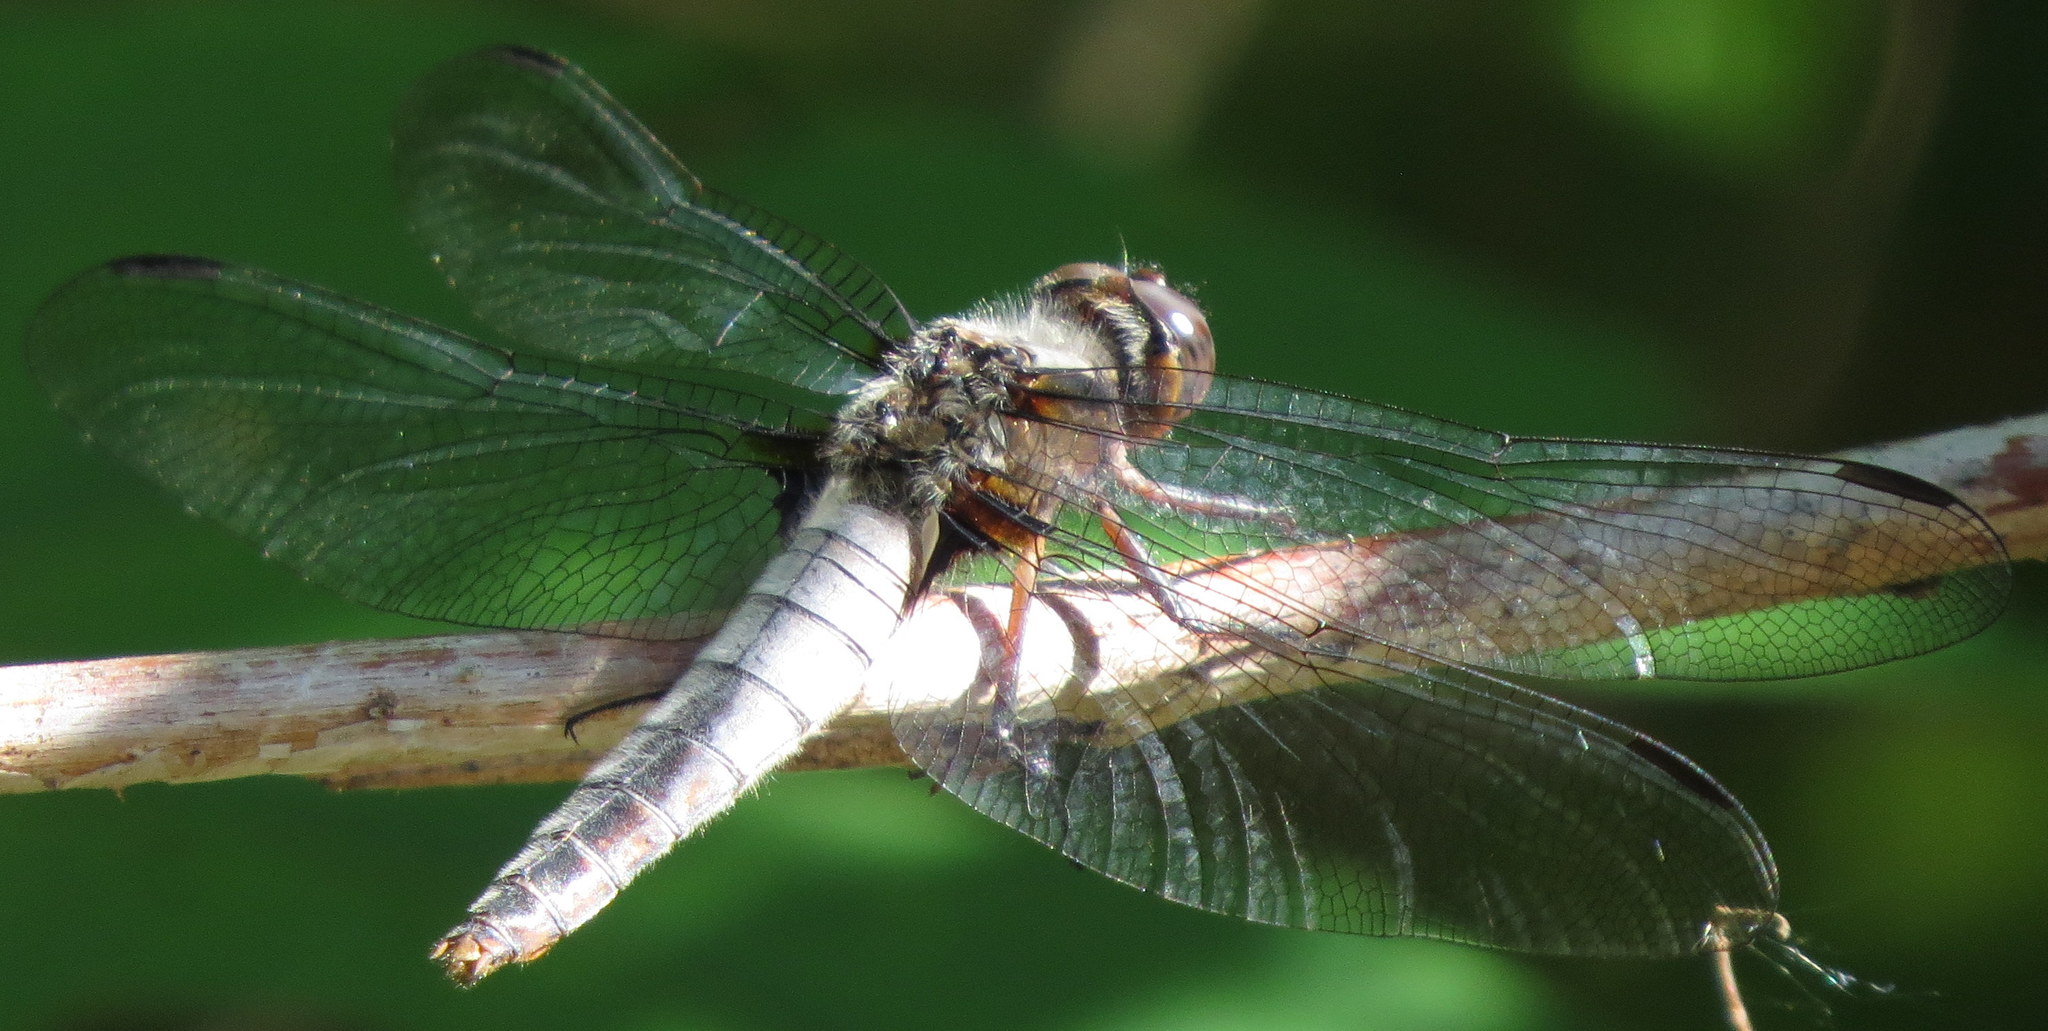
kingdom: Animalia
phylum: Arthropoda
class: Insecta
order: Odonata
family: Libellulidae
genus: Ladona
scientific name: Ladona julia
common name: Chalk-fronted corporal
